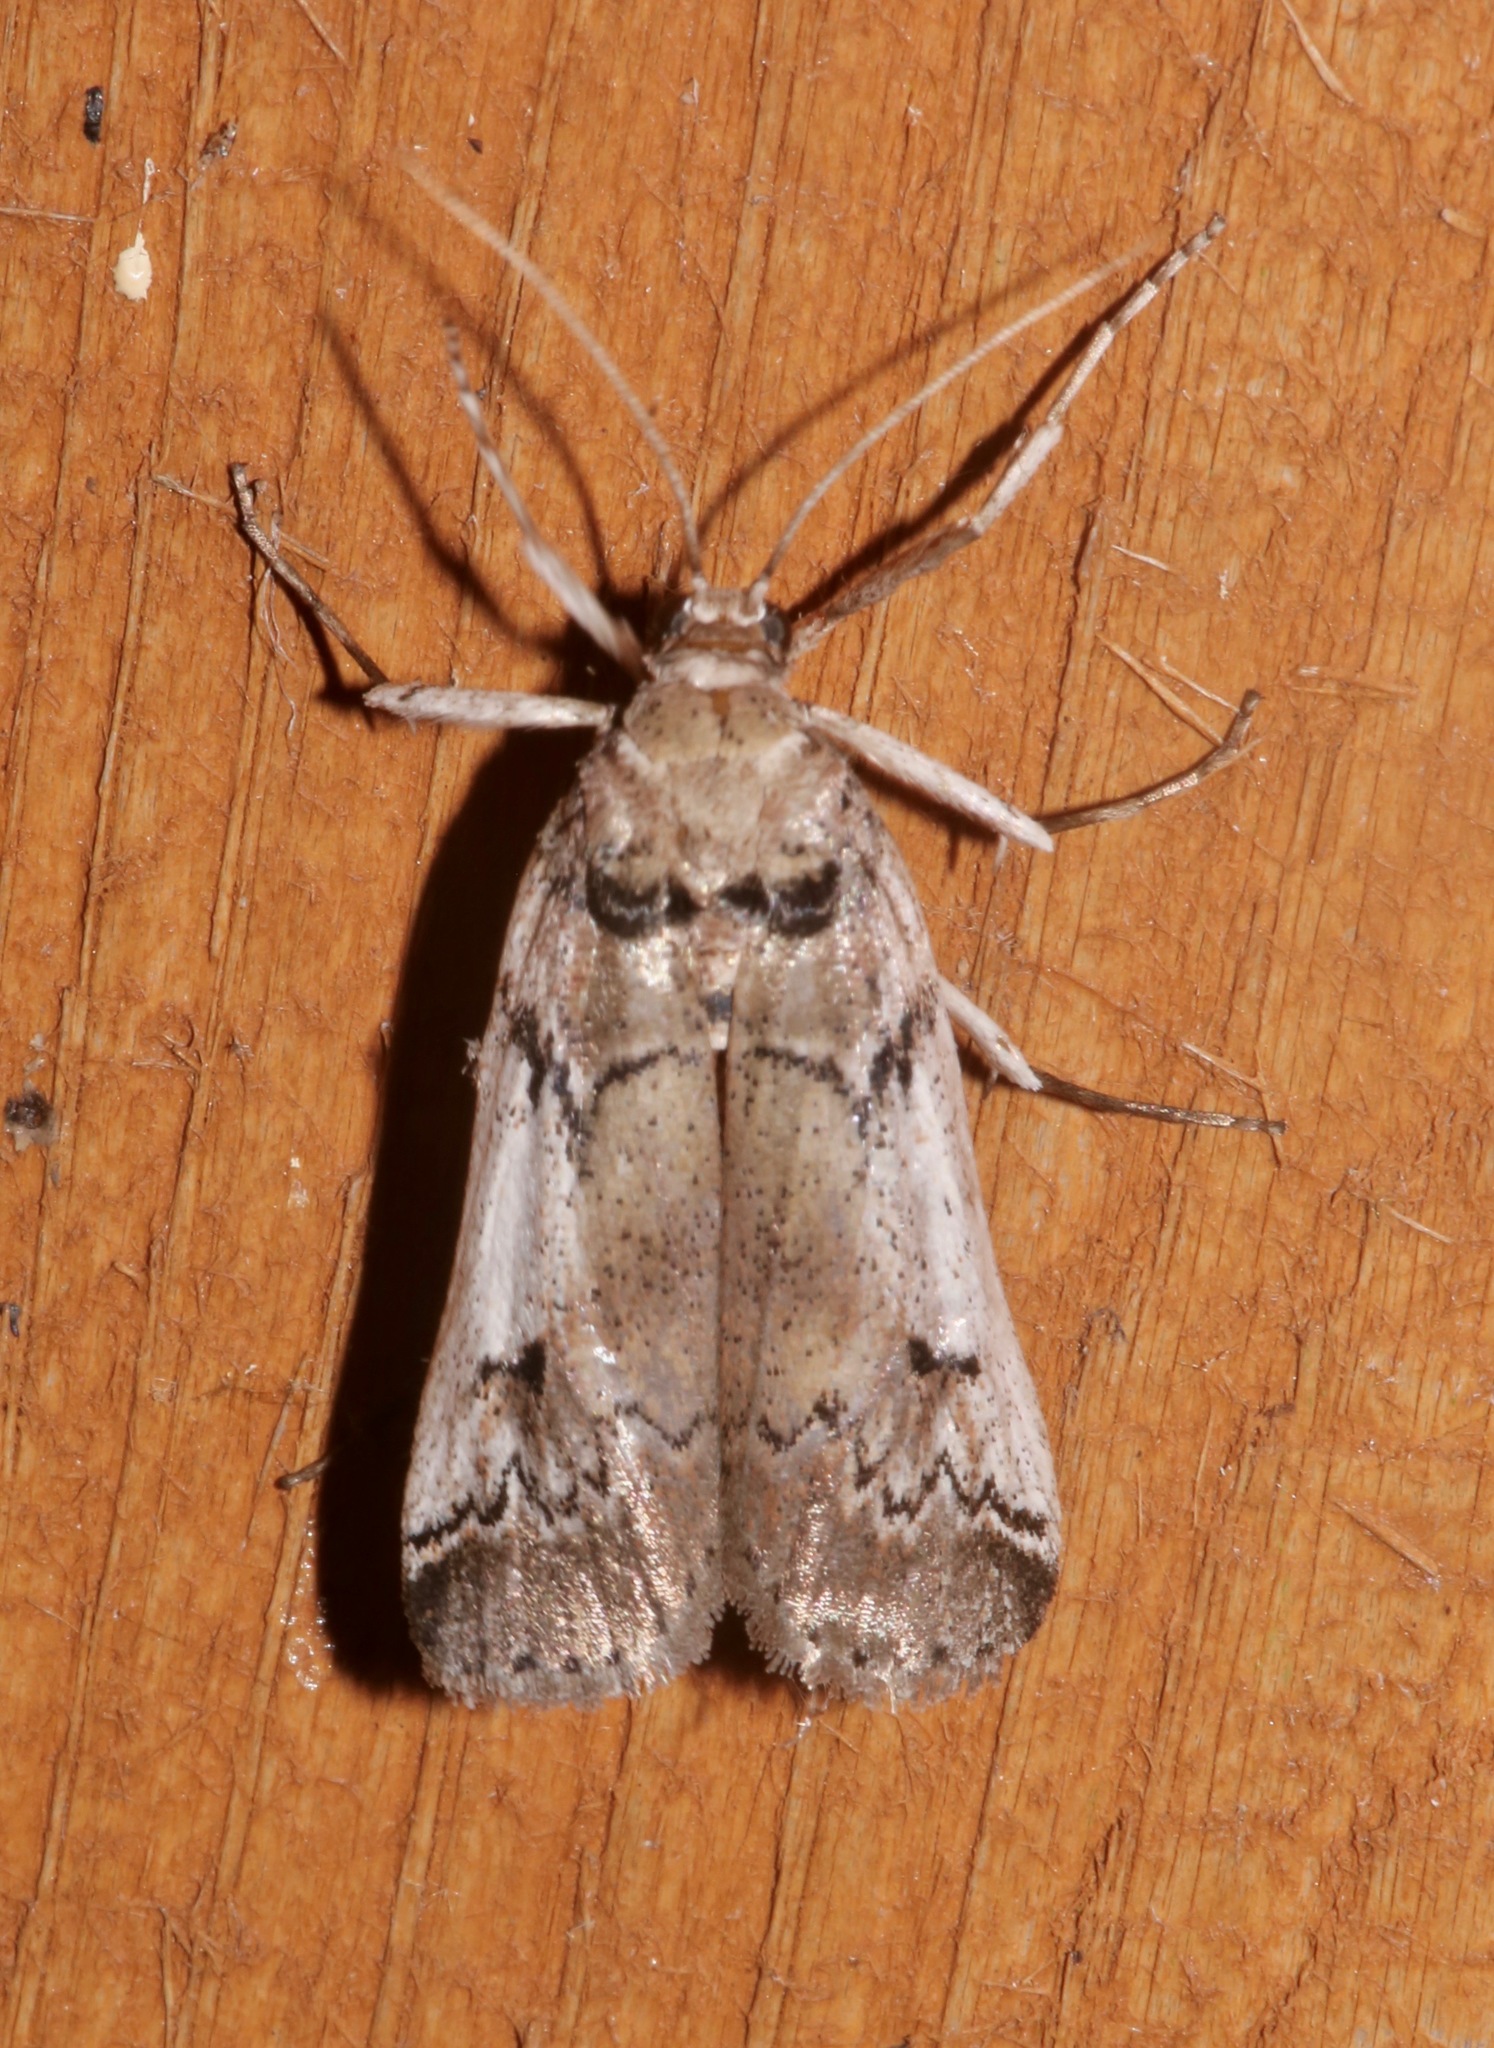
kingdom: Animalia
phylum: Arthropoda
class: Insecta
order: Lepidoptera
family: Pyralidae
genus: Melitara
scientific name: Melitara prodenialis
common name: Moth
